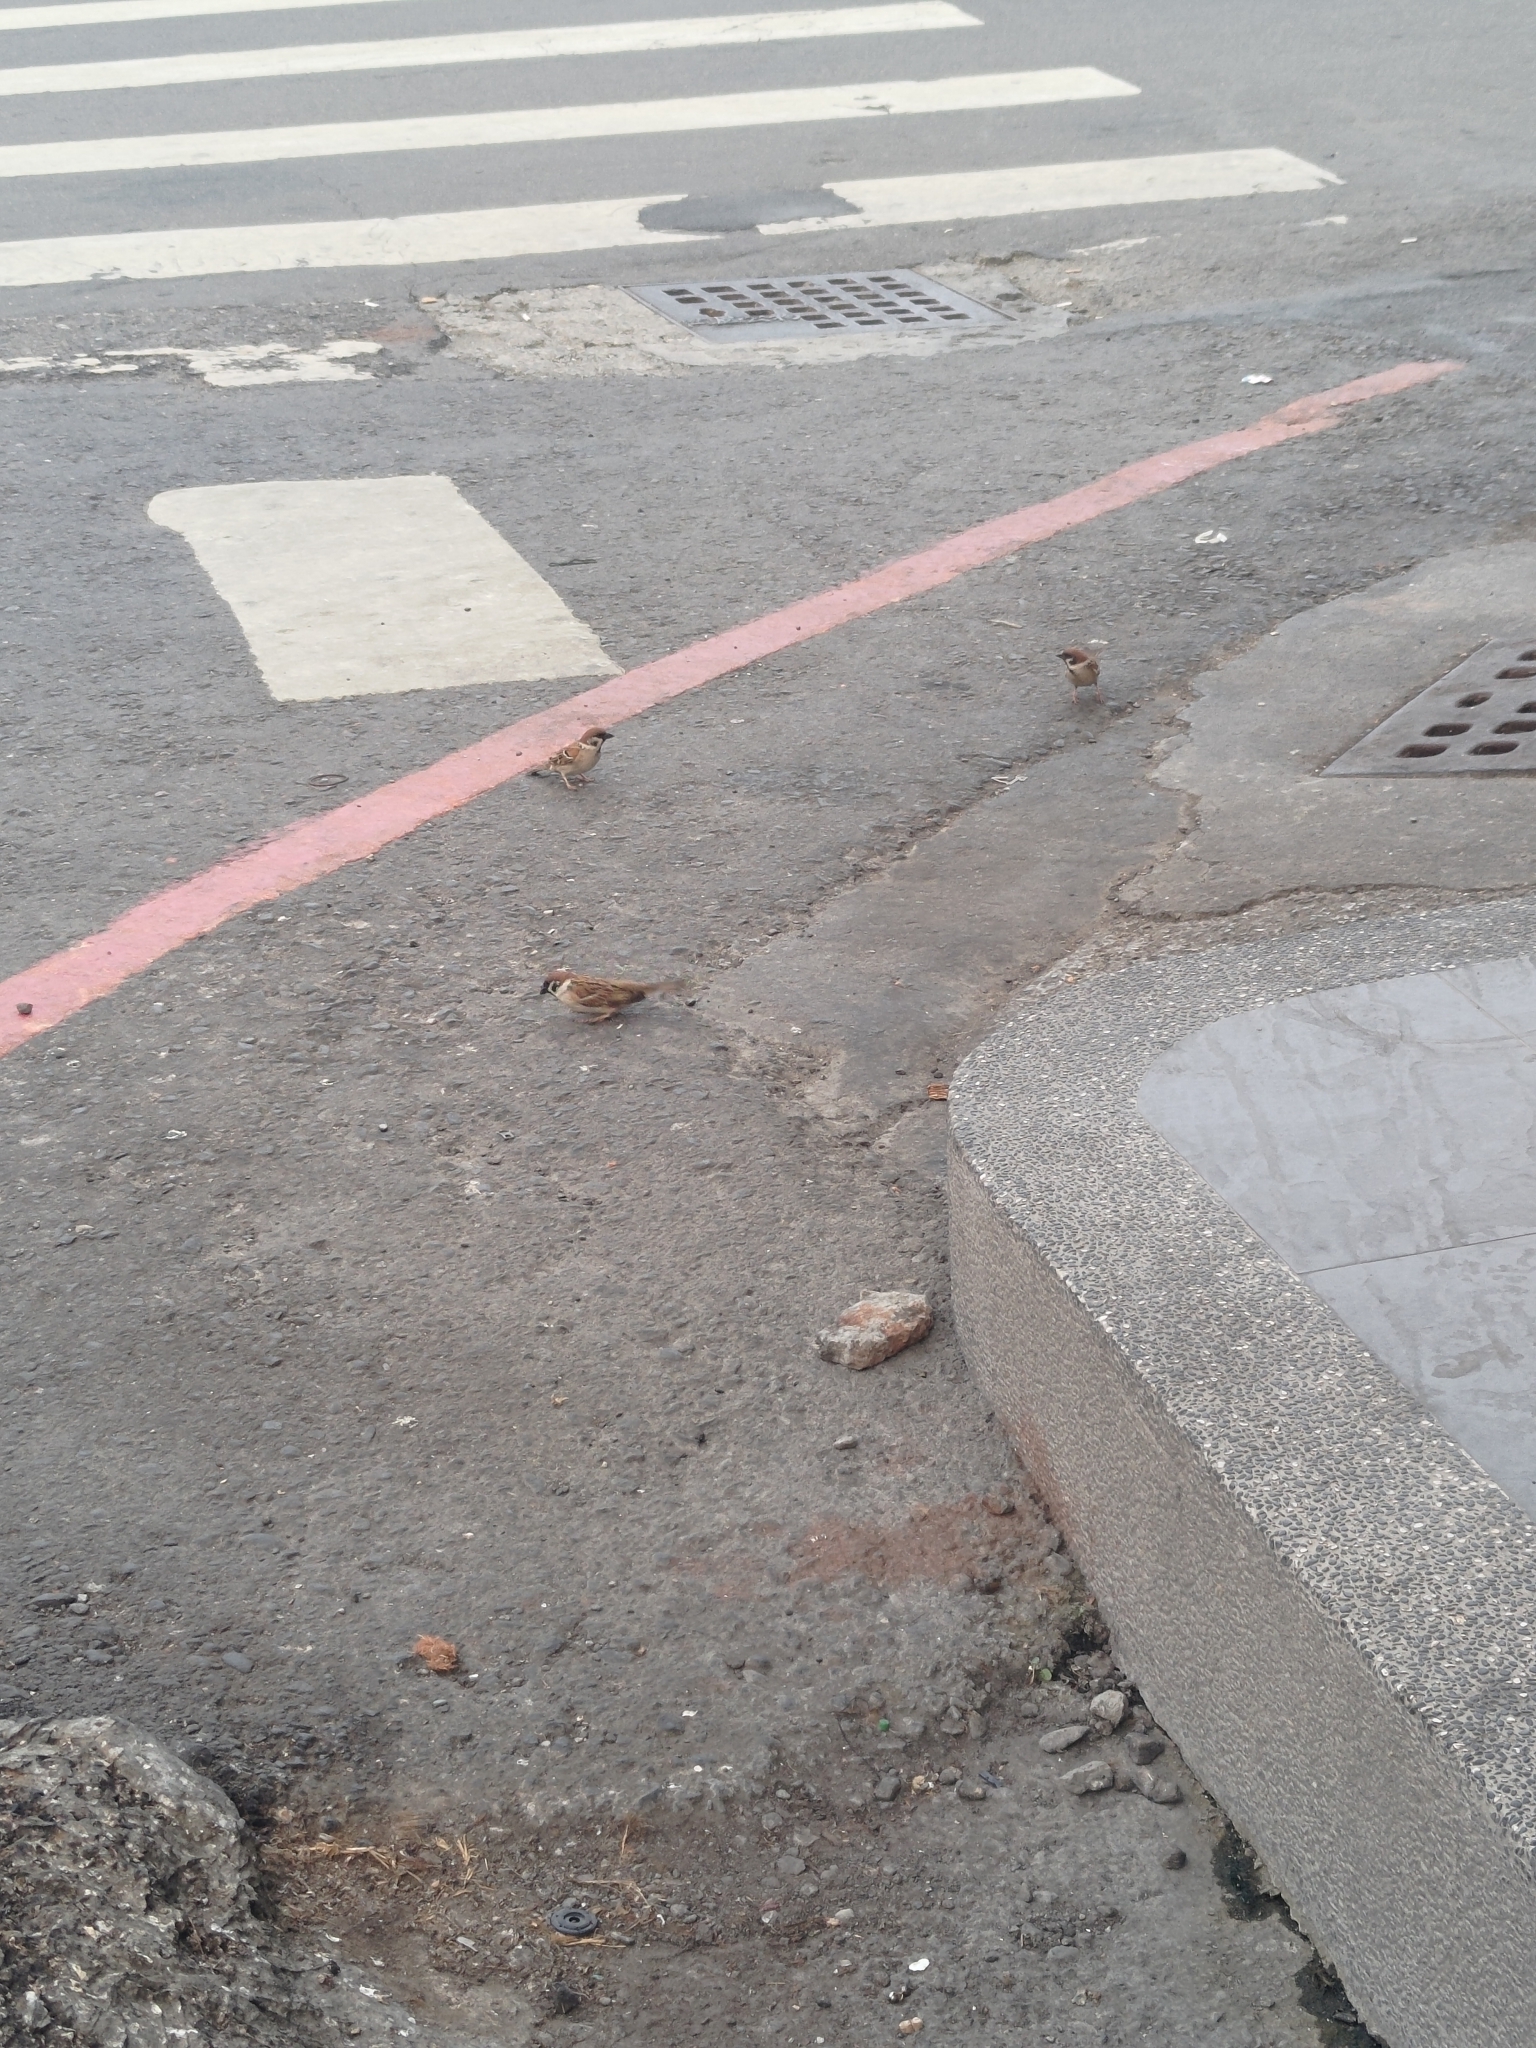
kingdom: Animalia
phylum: Chordata
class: Aves
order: Passeriformes
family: Passeridae
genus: Passer
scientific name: Passer montanus
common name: Eurasian tree sparrow
